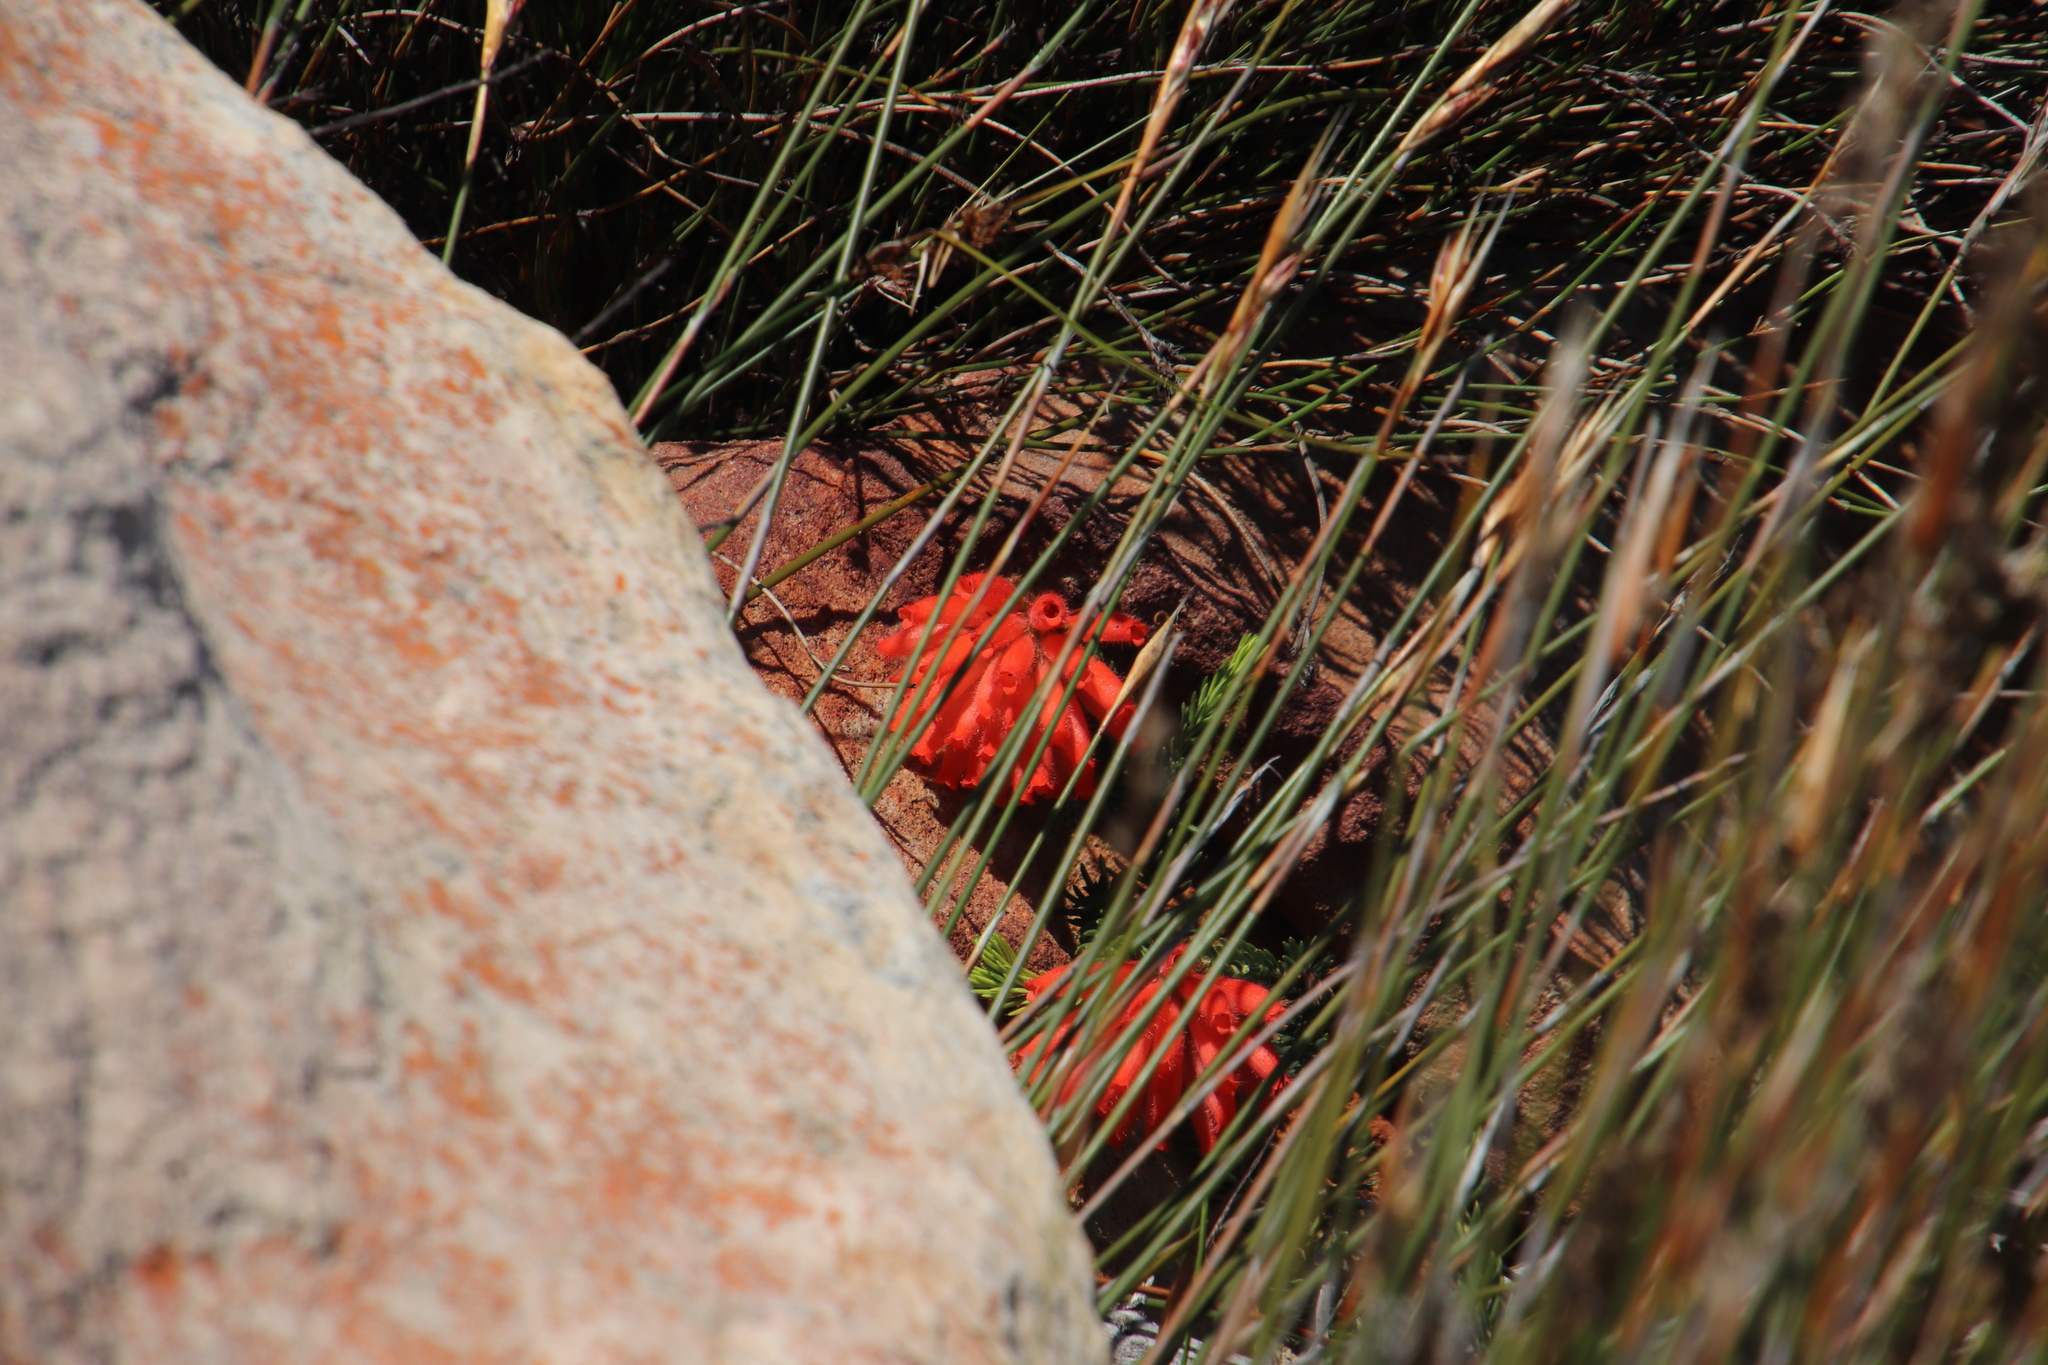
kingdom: Plantae
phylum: Tracheophyta
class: Magnoliopsida
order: Ericales
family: Ericaceae
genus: Erica
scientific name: Erica cerinthoides
